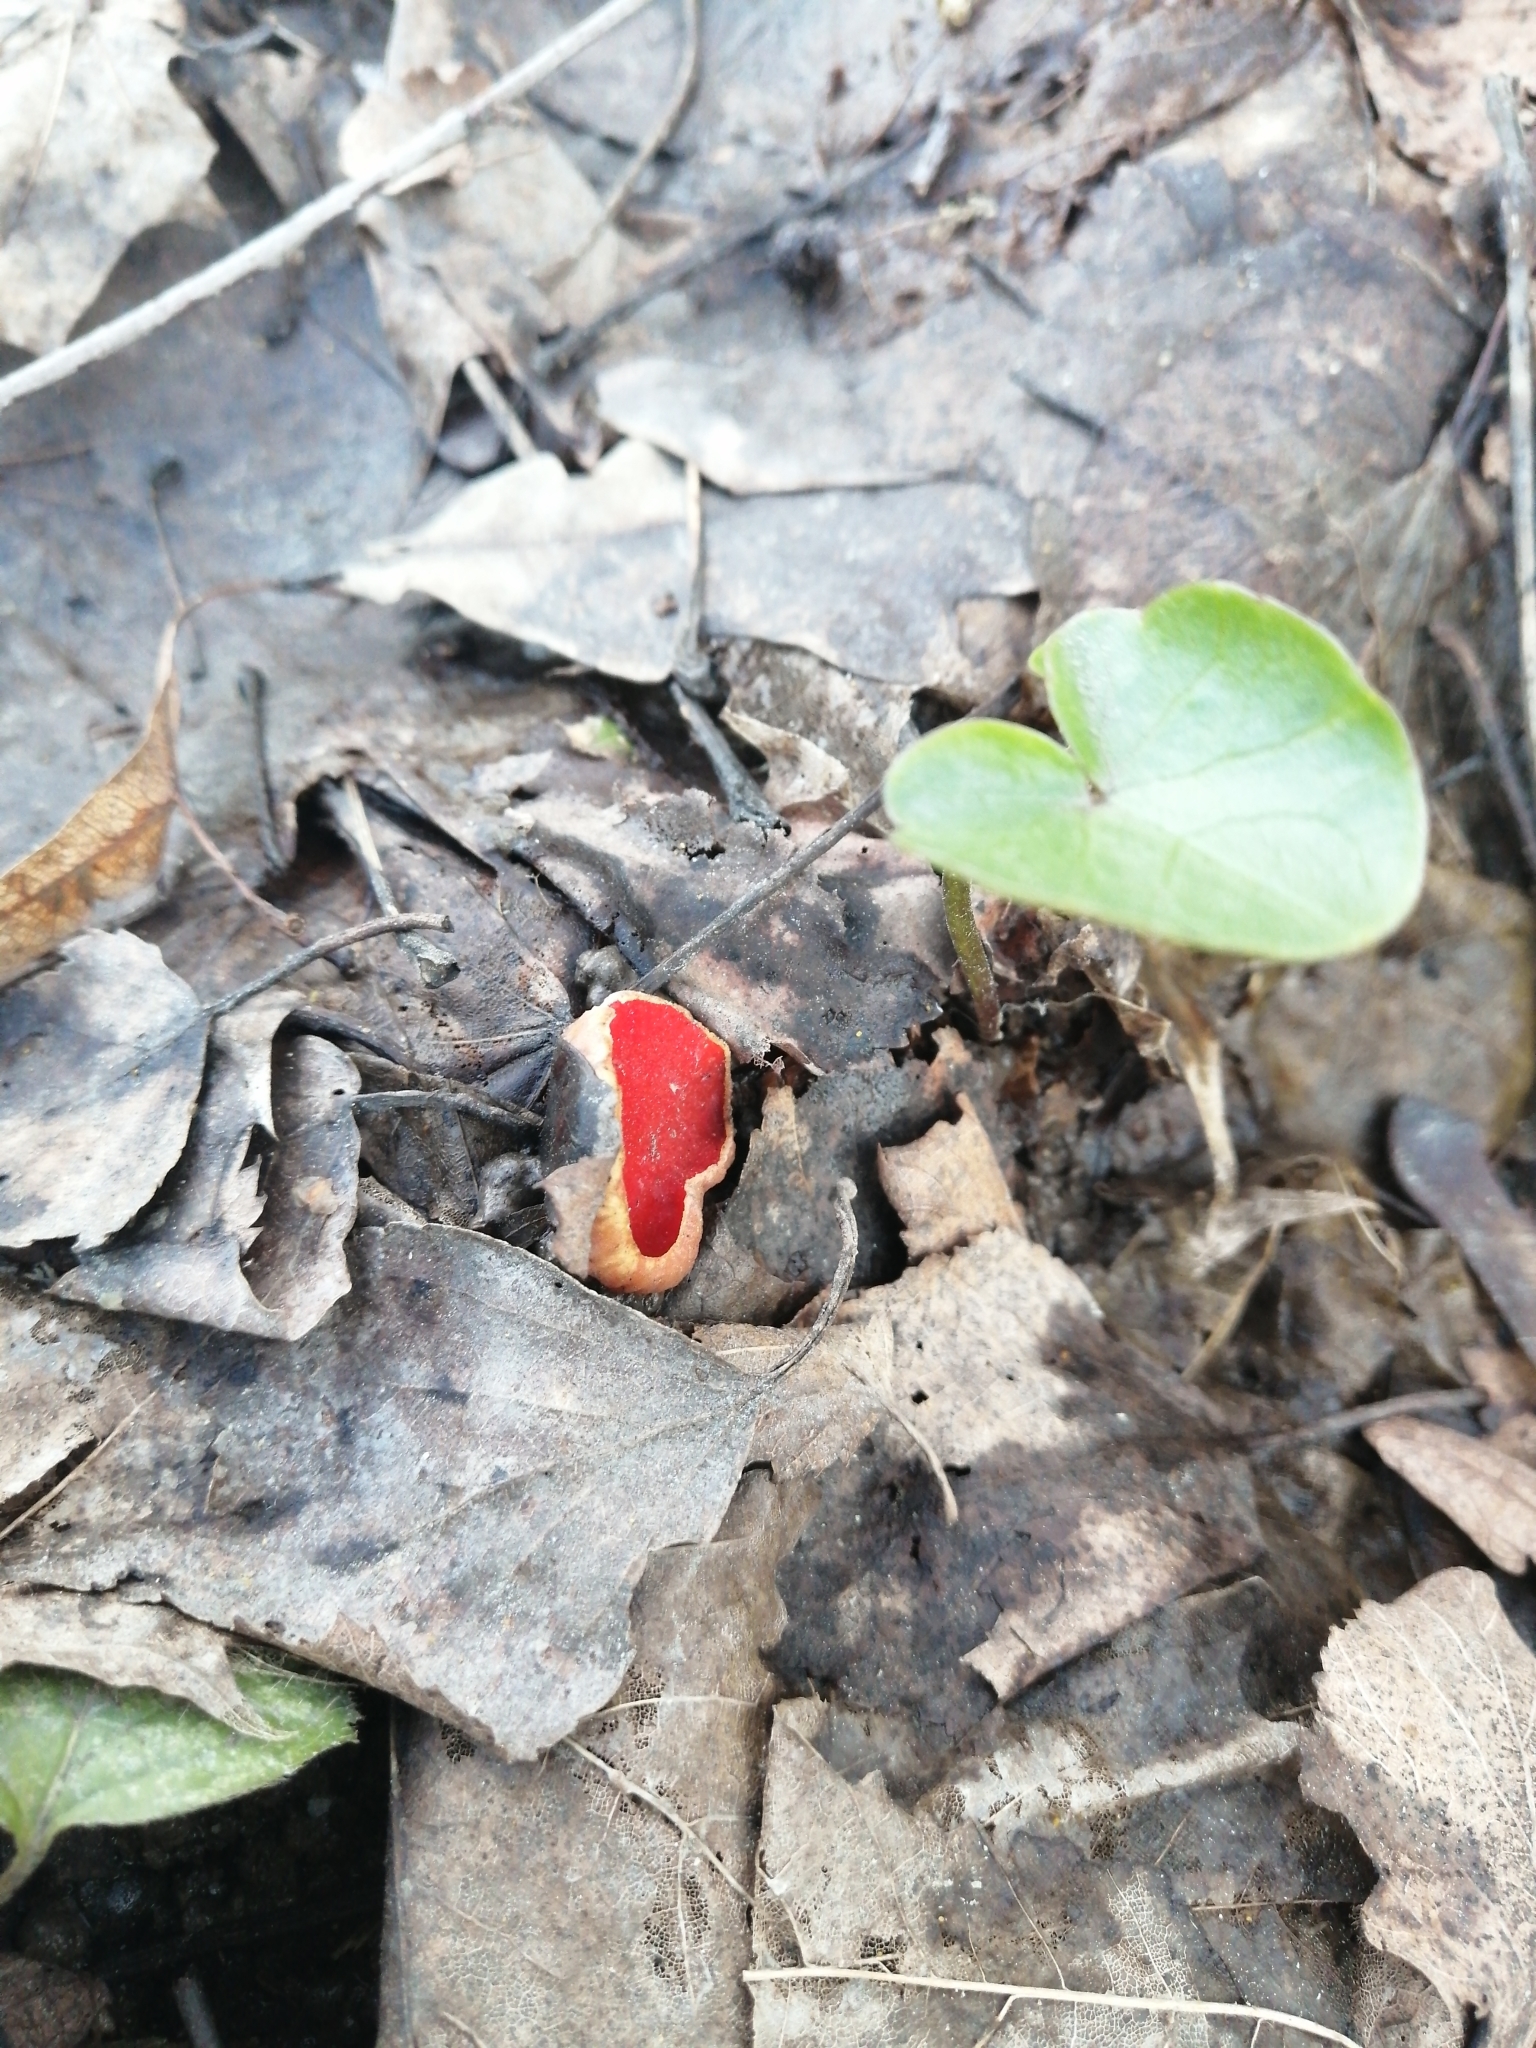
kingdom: Fungi
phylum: Ascomycota
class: Pezizomycetes
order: Pezizales
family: Sarcoscyphaceae
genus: Sarcoscypha
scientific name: Sarcoscypha austriaca
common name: Scarlet elfcup
